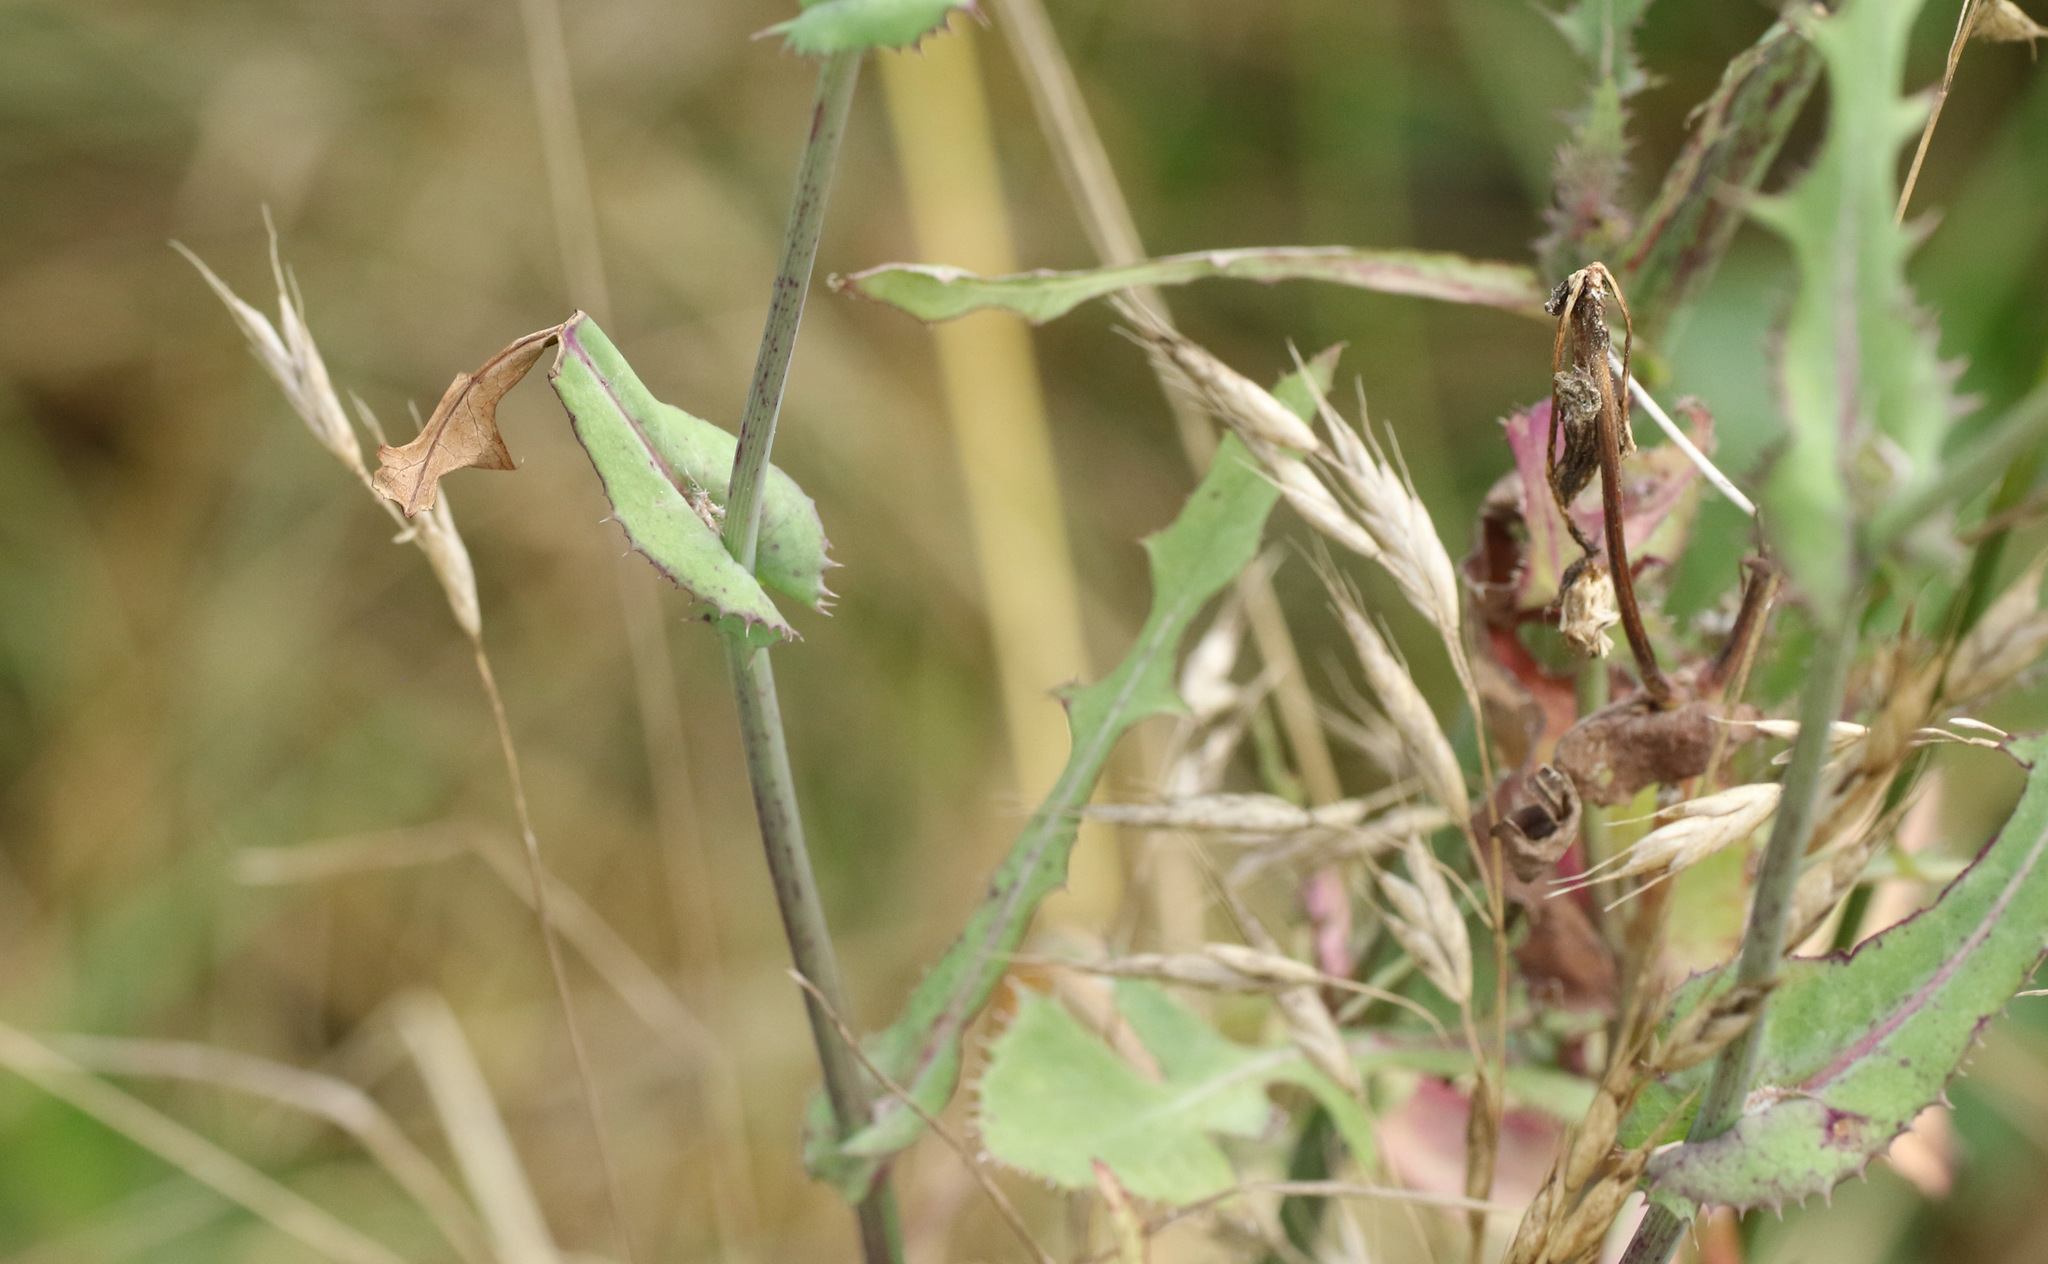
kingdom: Plantae
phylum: Tracheophyta
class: Magnoliopsida
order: Asterales
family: Asteraceae
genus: Sonchus
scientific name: Sonchus oleraceus
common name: Common sowthistle
